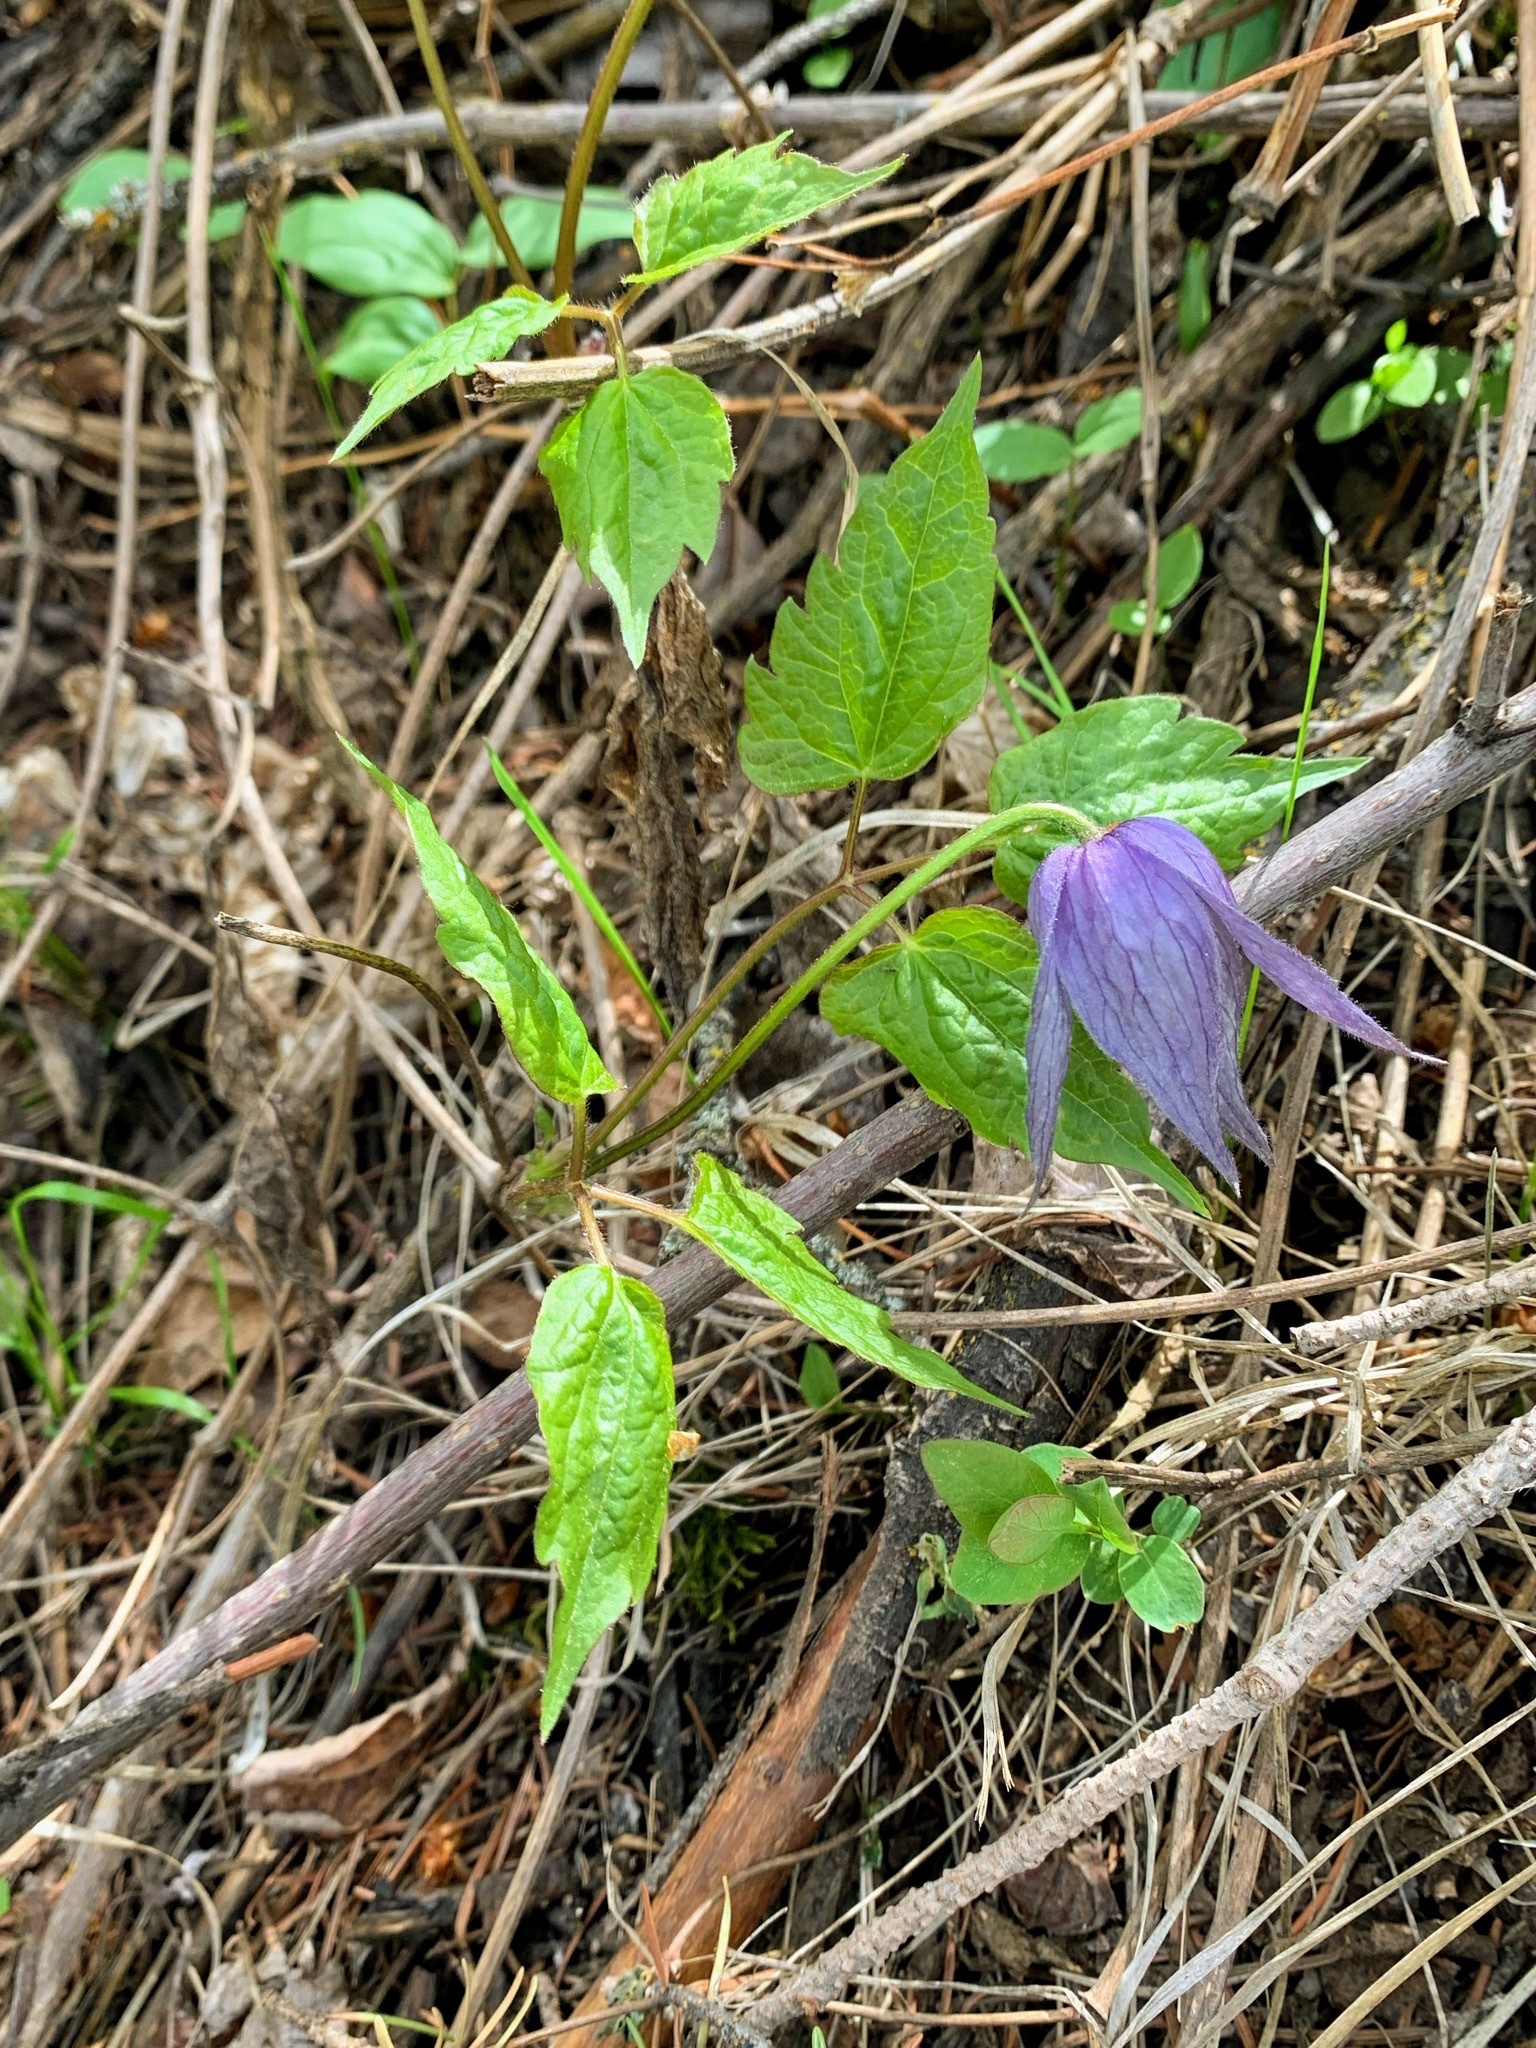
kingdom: Plantae
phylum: Tracheophyta
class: Magnoliopsida
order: Ranunculales
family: Ranunculaceae
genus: Clematis
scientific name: Clematis occidentalis
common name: Purple clematis
